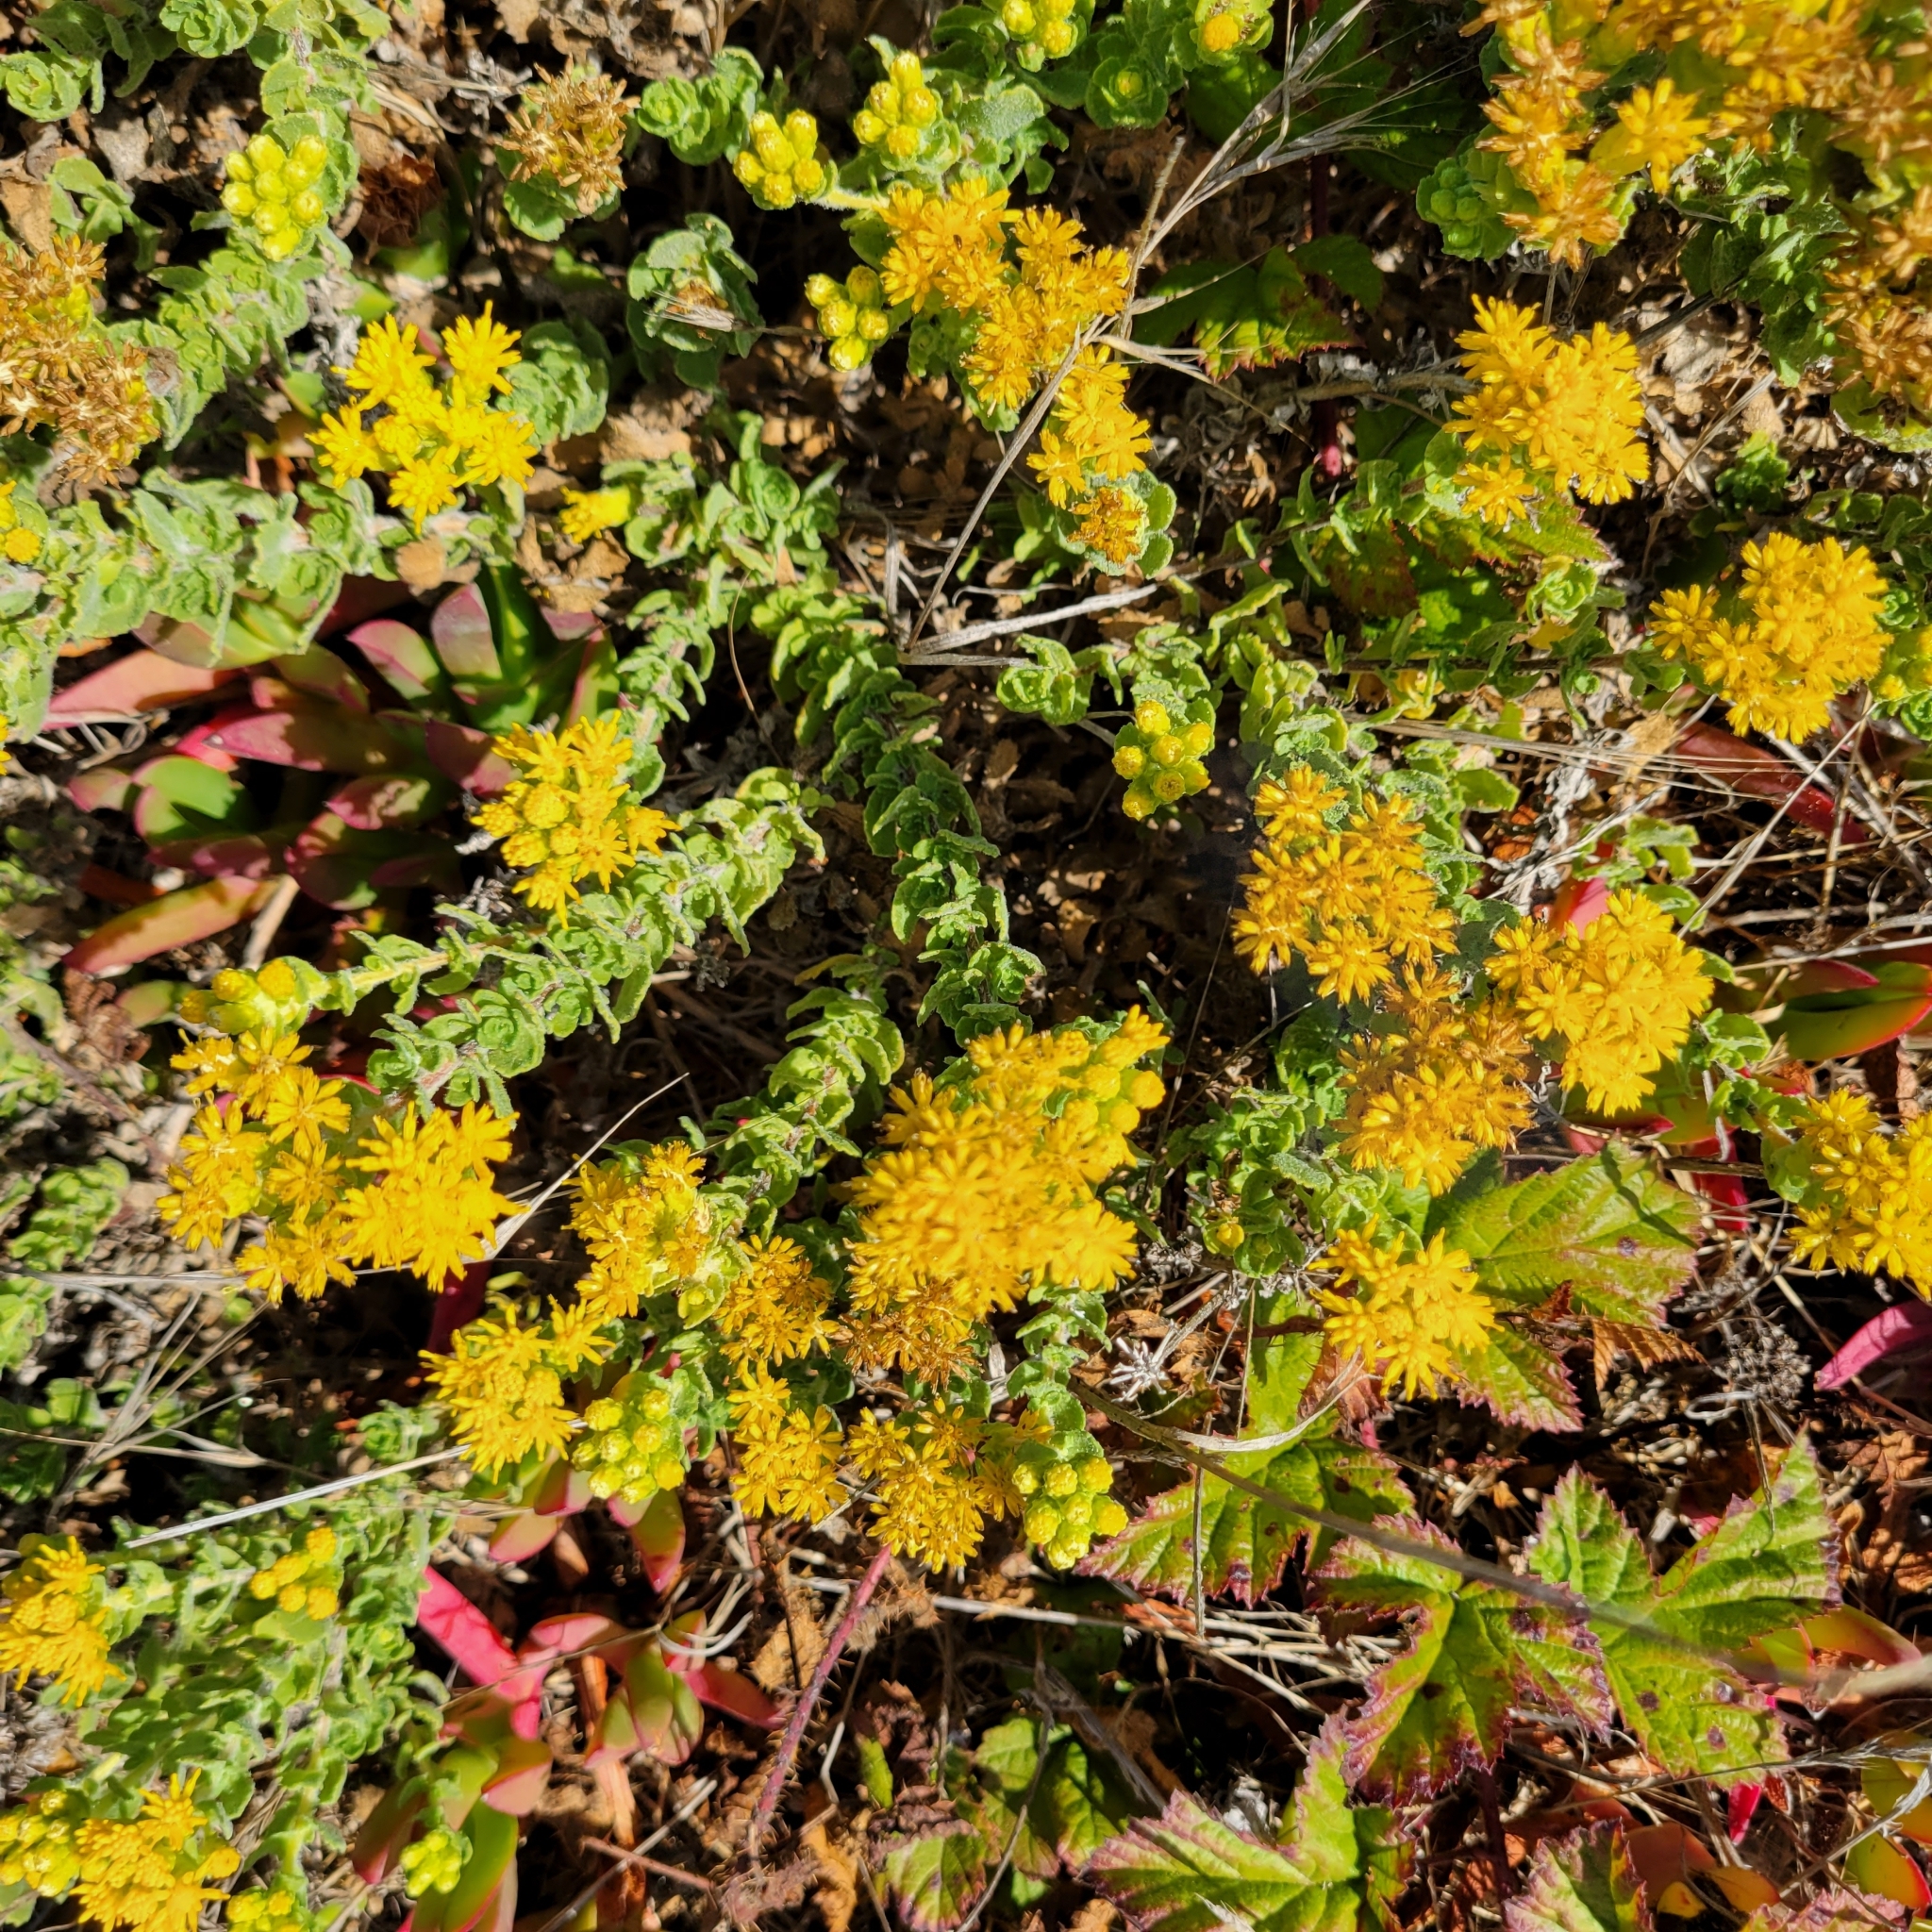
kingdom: Plantae
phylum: Tracheophyta
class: Magnoliopsida
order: Asterales
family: Asteraceae
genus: Isocoma
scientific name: Isocoma menziesii
